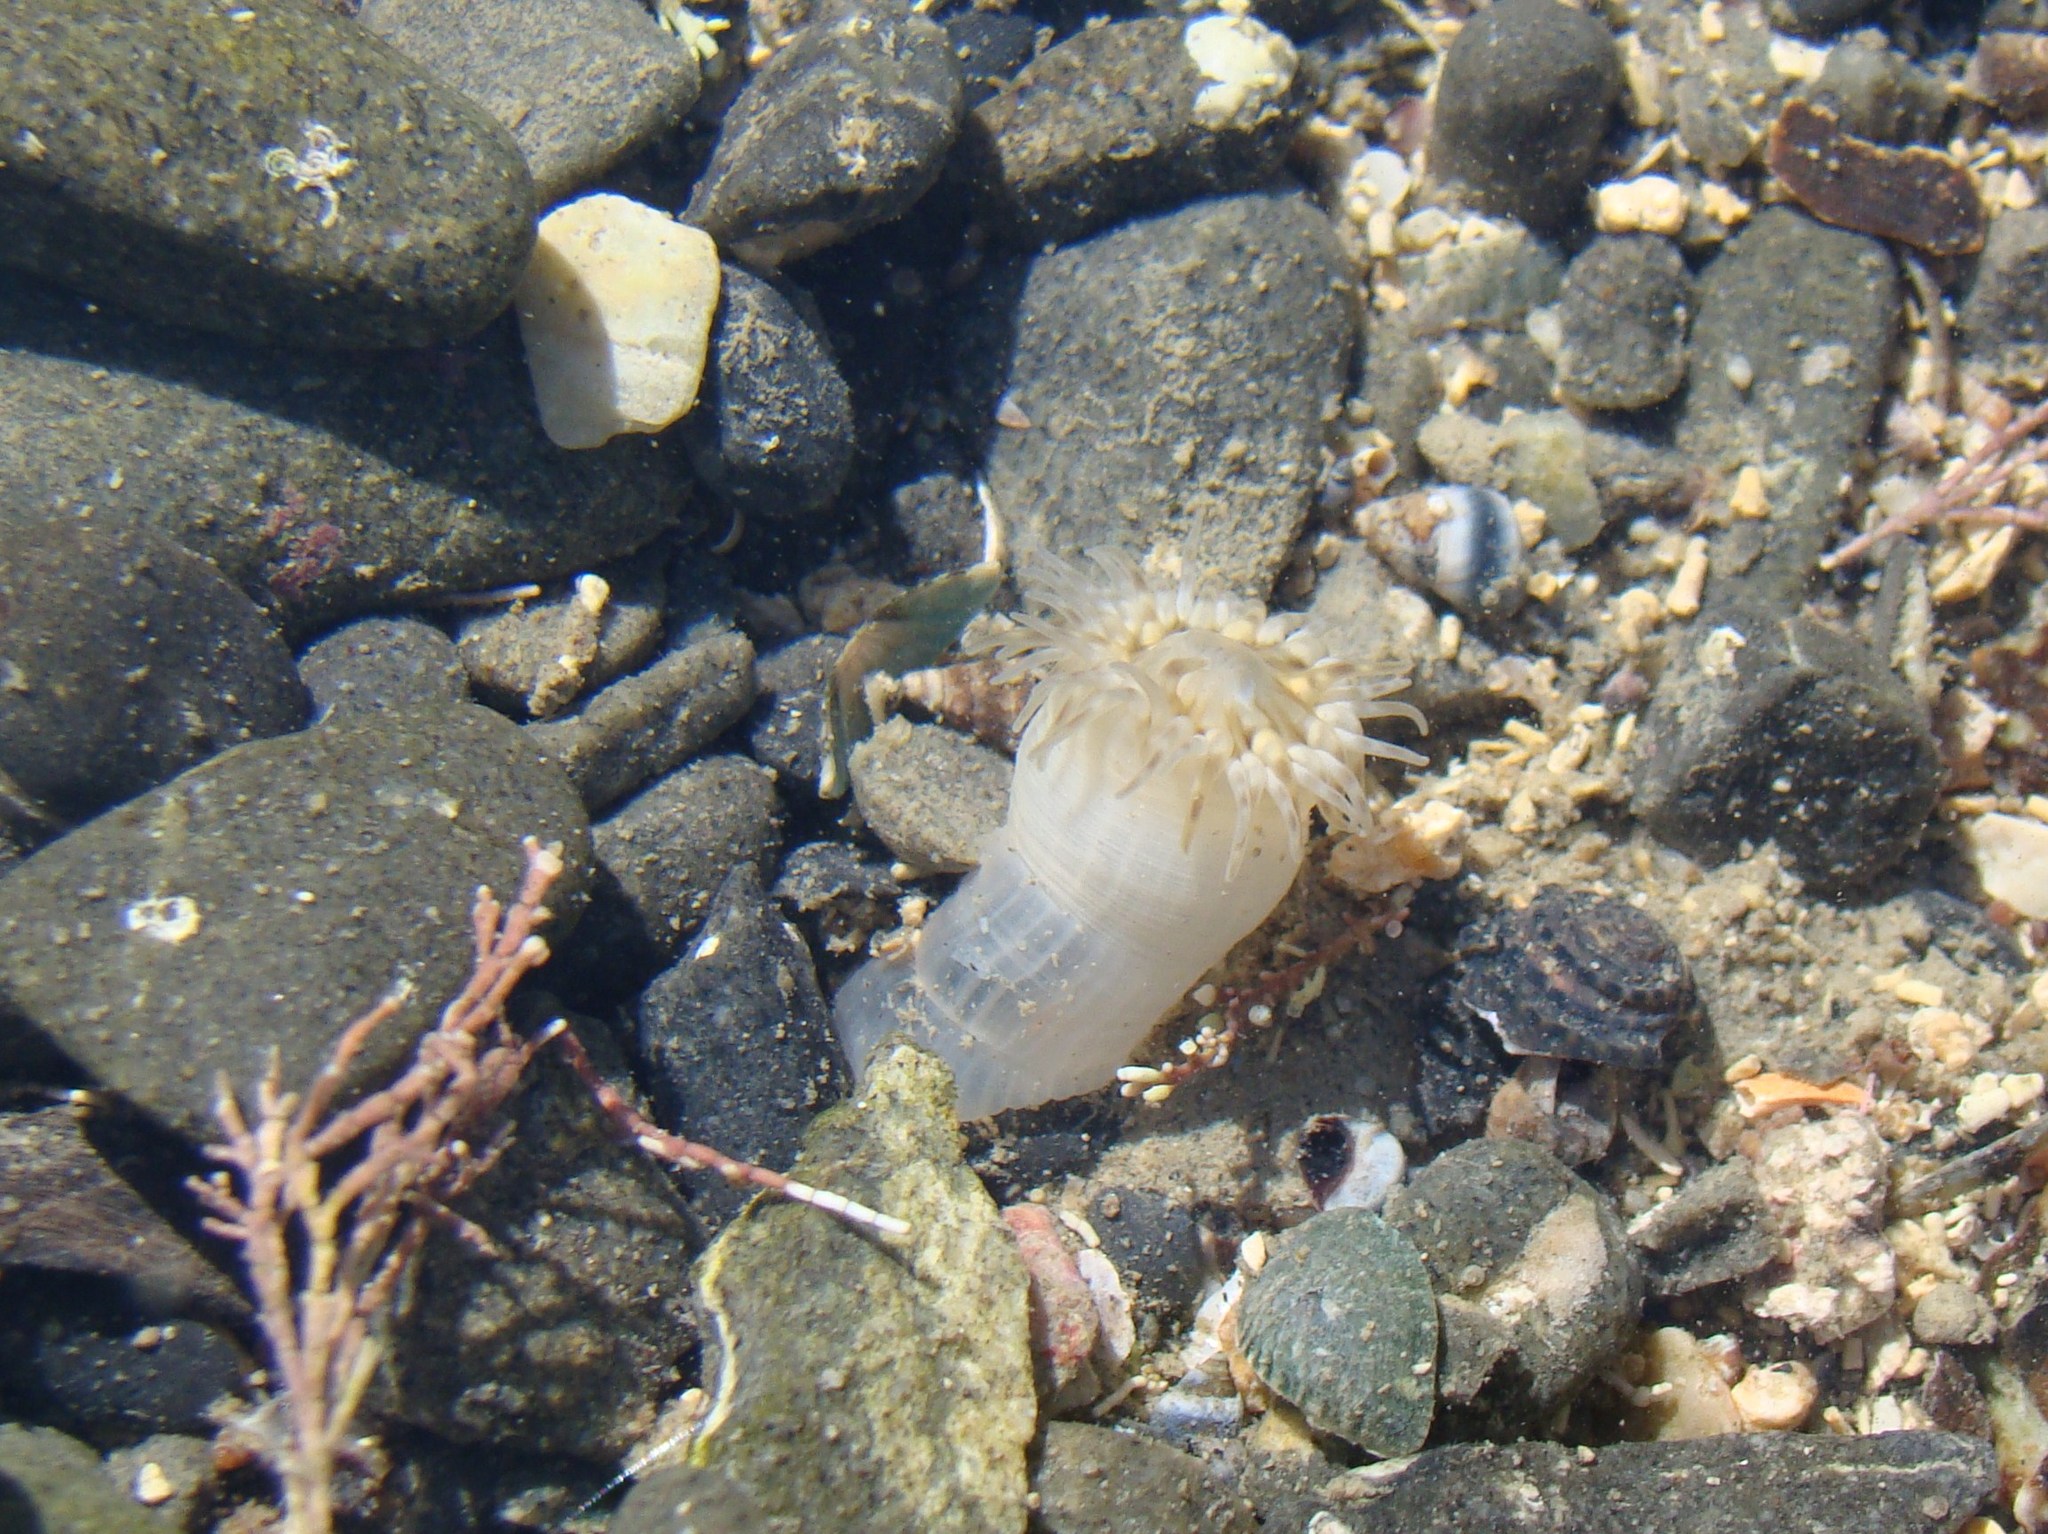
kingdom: Animalia
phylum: Cnidaria
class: Anthozoa
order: Actiniaria
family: Isanthidae
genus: Isoparactis
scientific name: Isoparactis ferax
